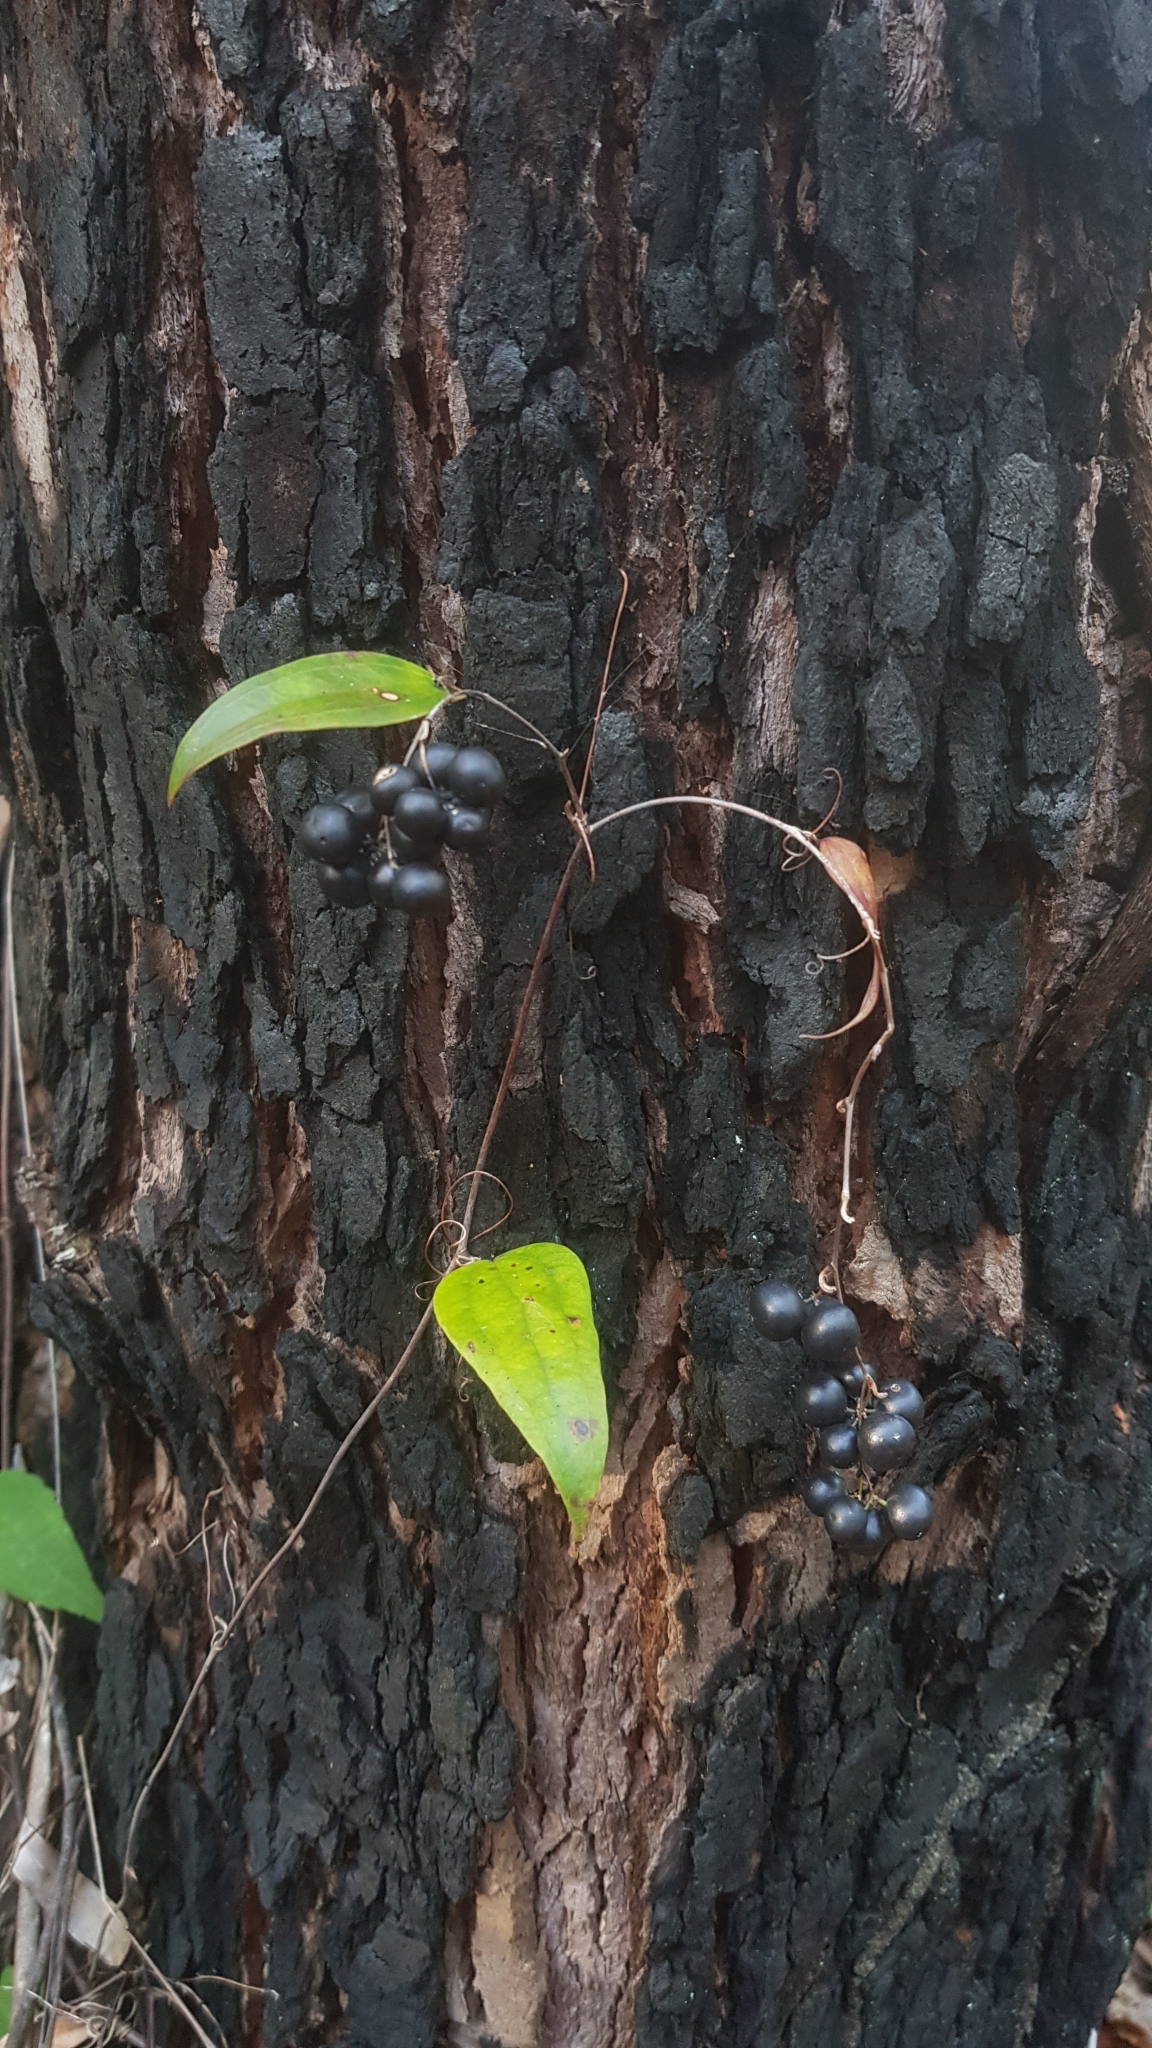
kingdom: Plantae
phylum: Tracheophyta
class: Liliopsida
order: Liliales
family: Smilacaceae
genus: Smilax
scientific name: Smilax glyciphylla
